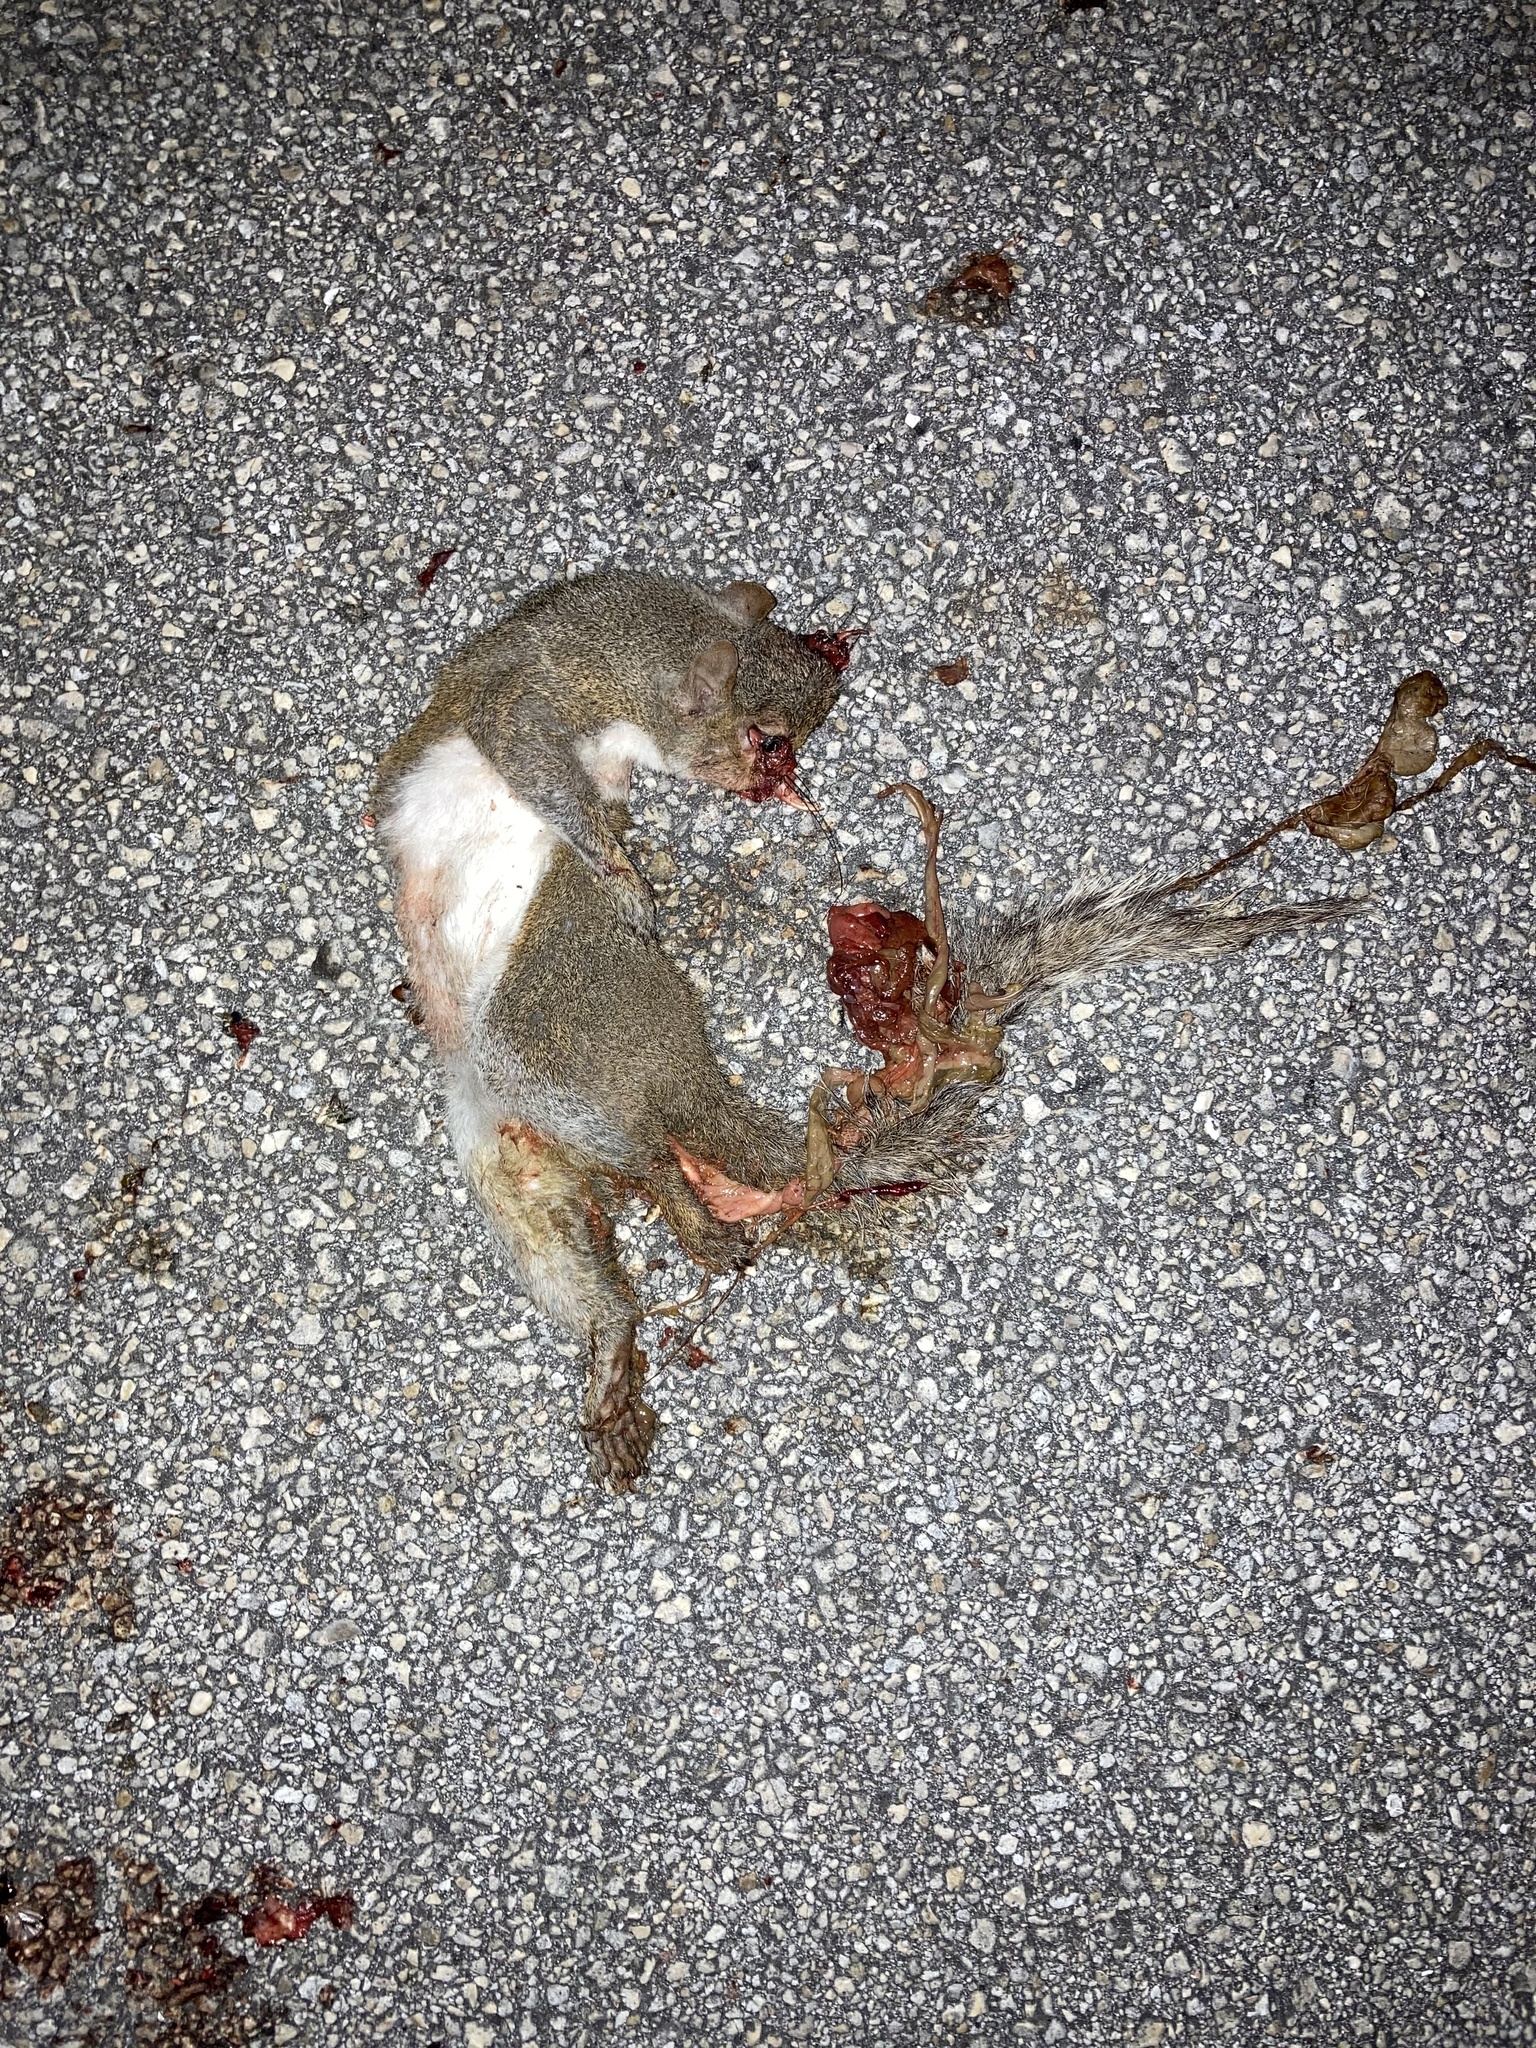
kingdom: Animalia
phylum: Chordata
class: Mammalia
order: Rodentia
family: Sciuridae
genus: Sciurus
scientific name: Sciurus carolinensis
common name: Eastern gray squirrel
